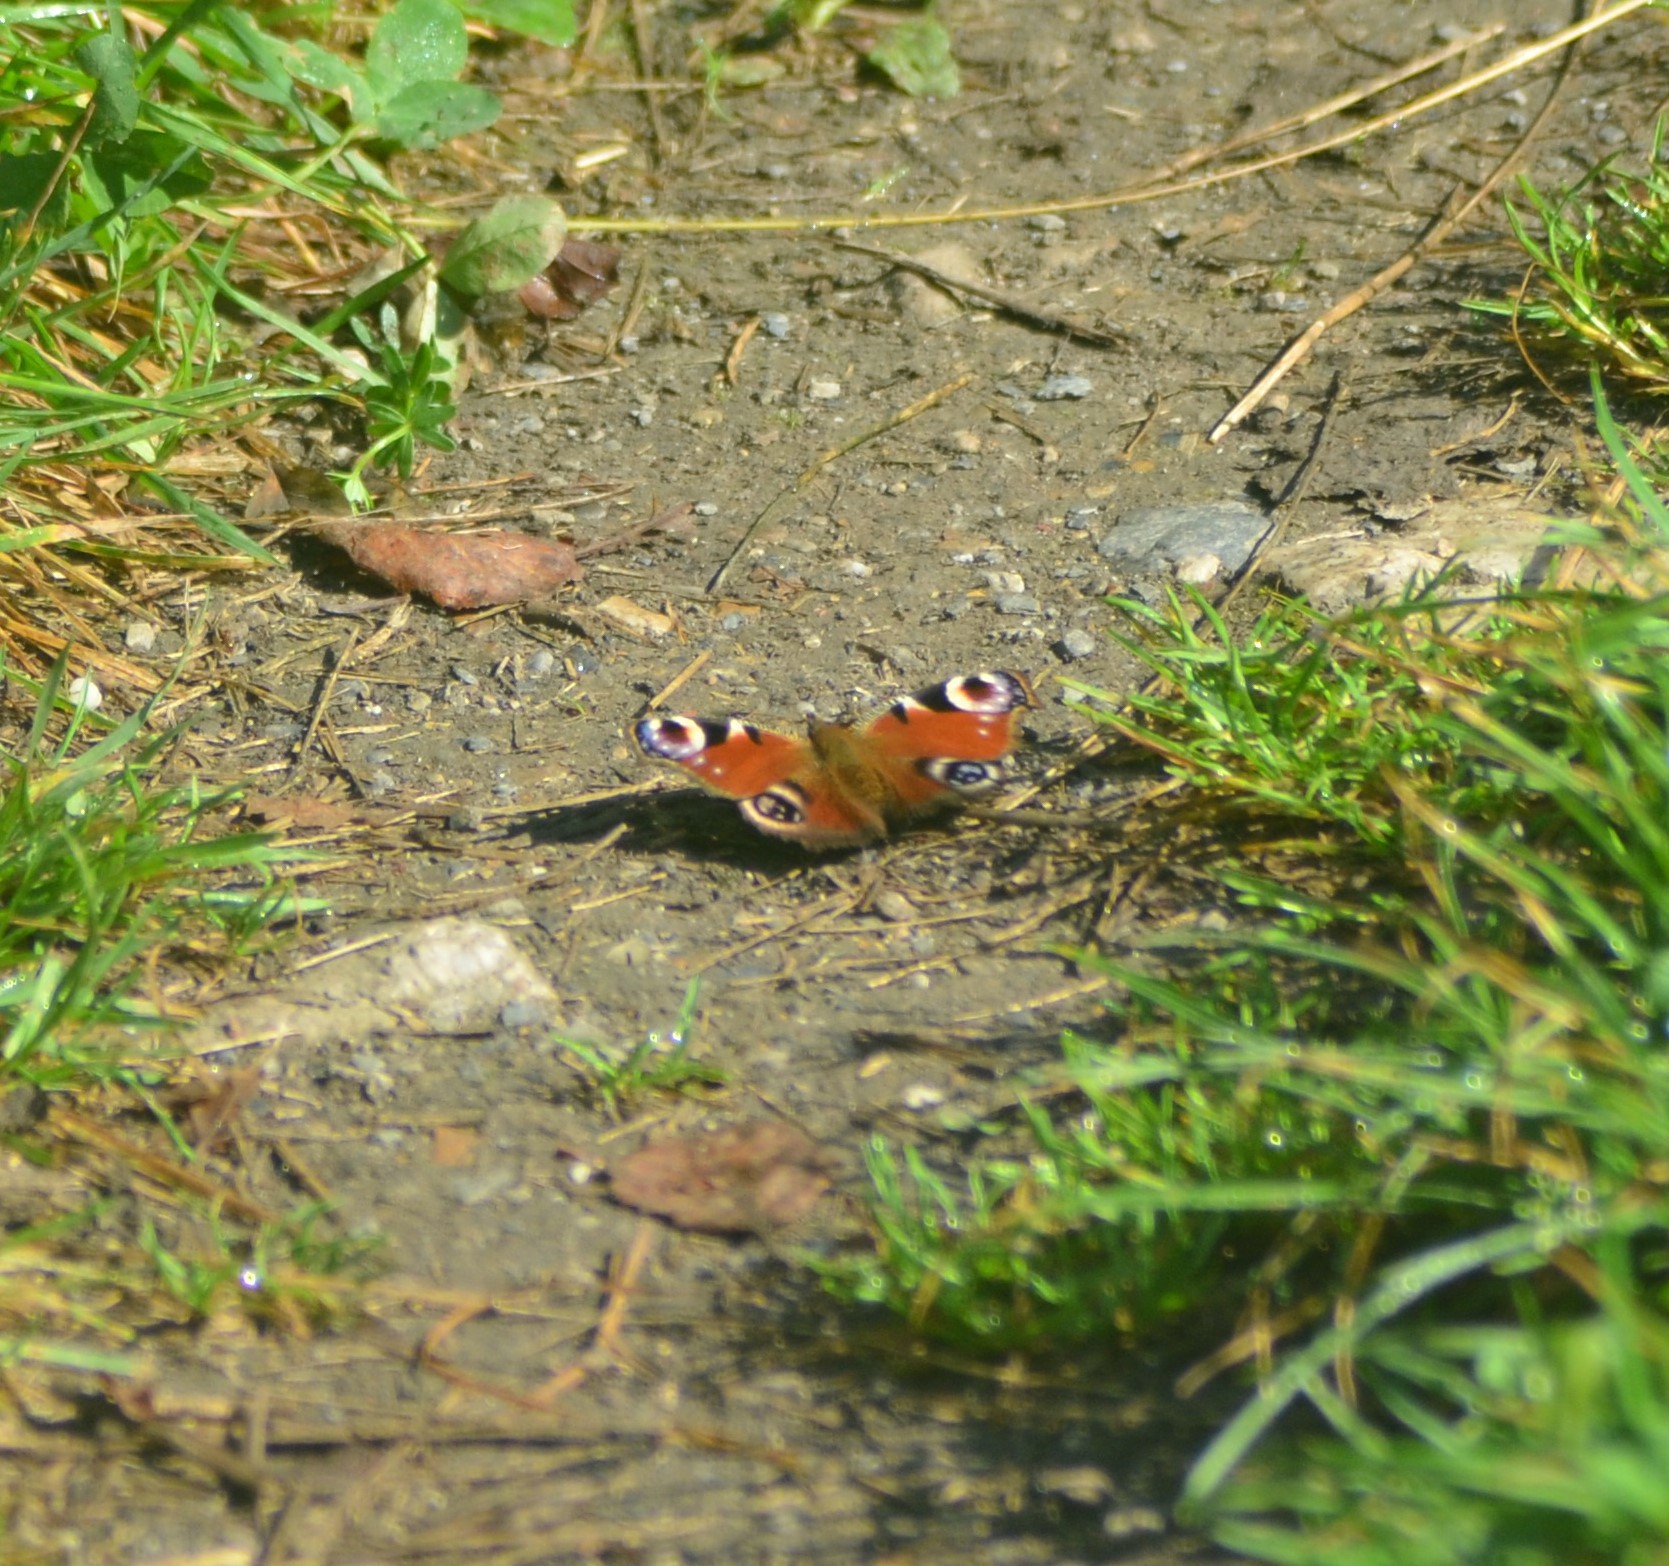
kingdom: Animalia
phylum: Arthropoda
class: Insecta
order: Lepidoptera
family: Nymphalidae
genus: Aglais
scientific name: Aglais io
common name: Peacock
